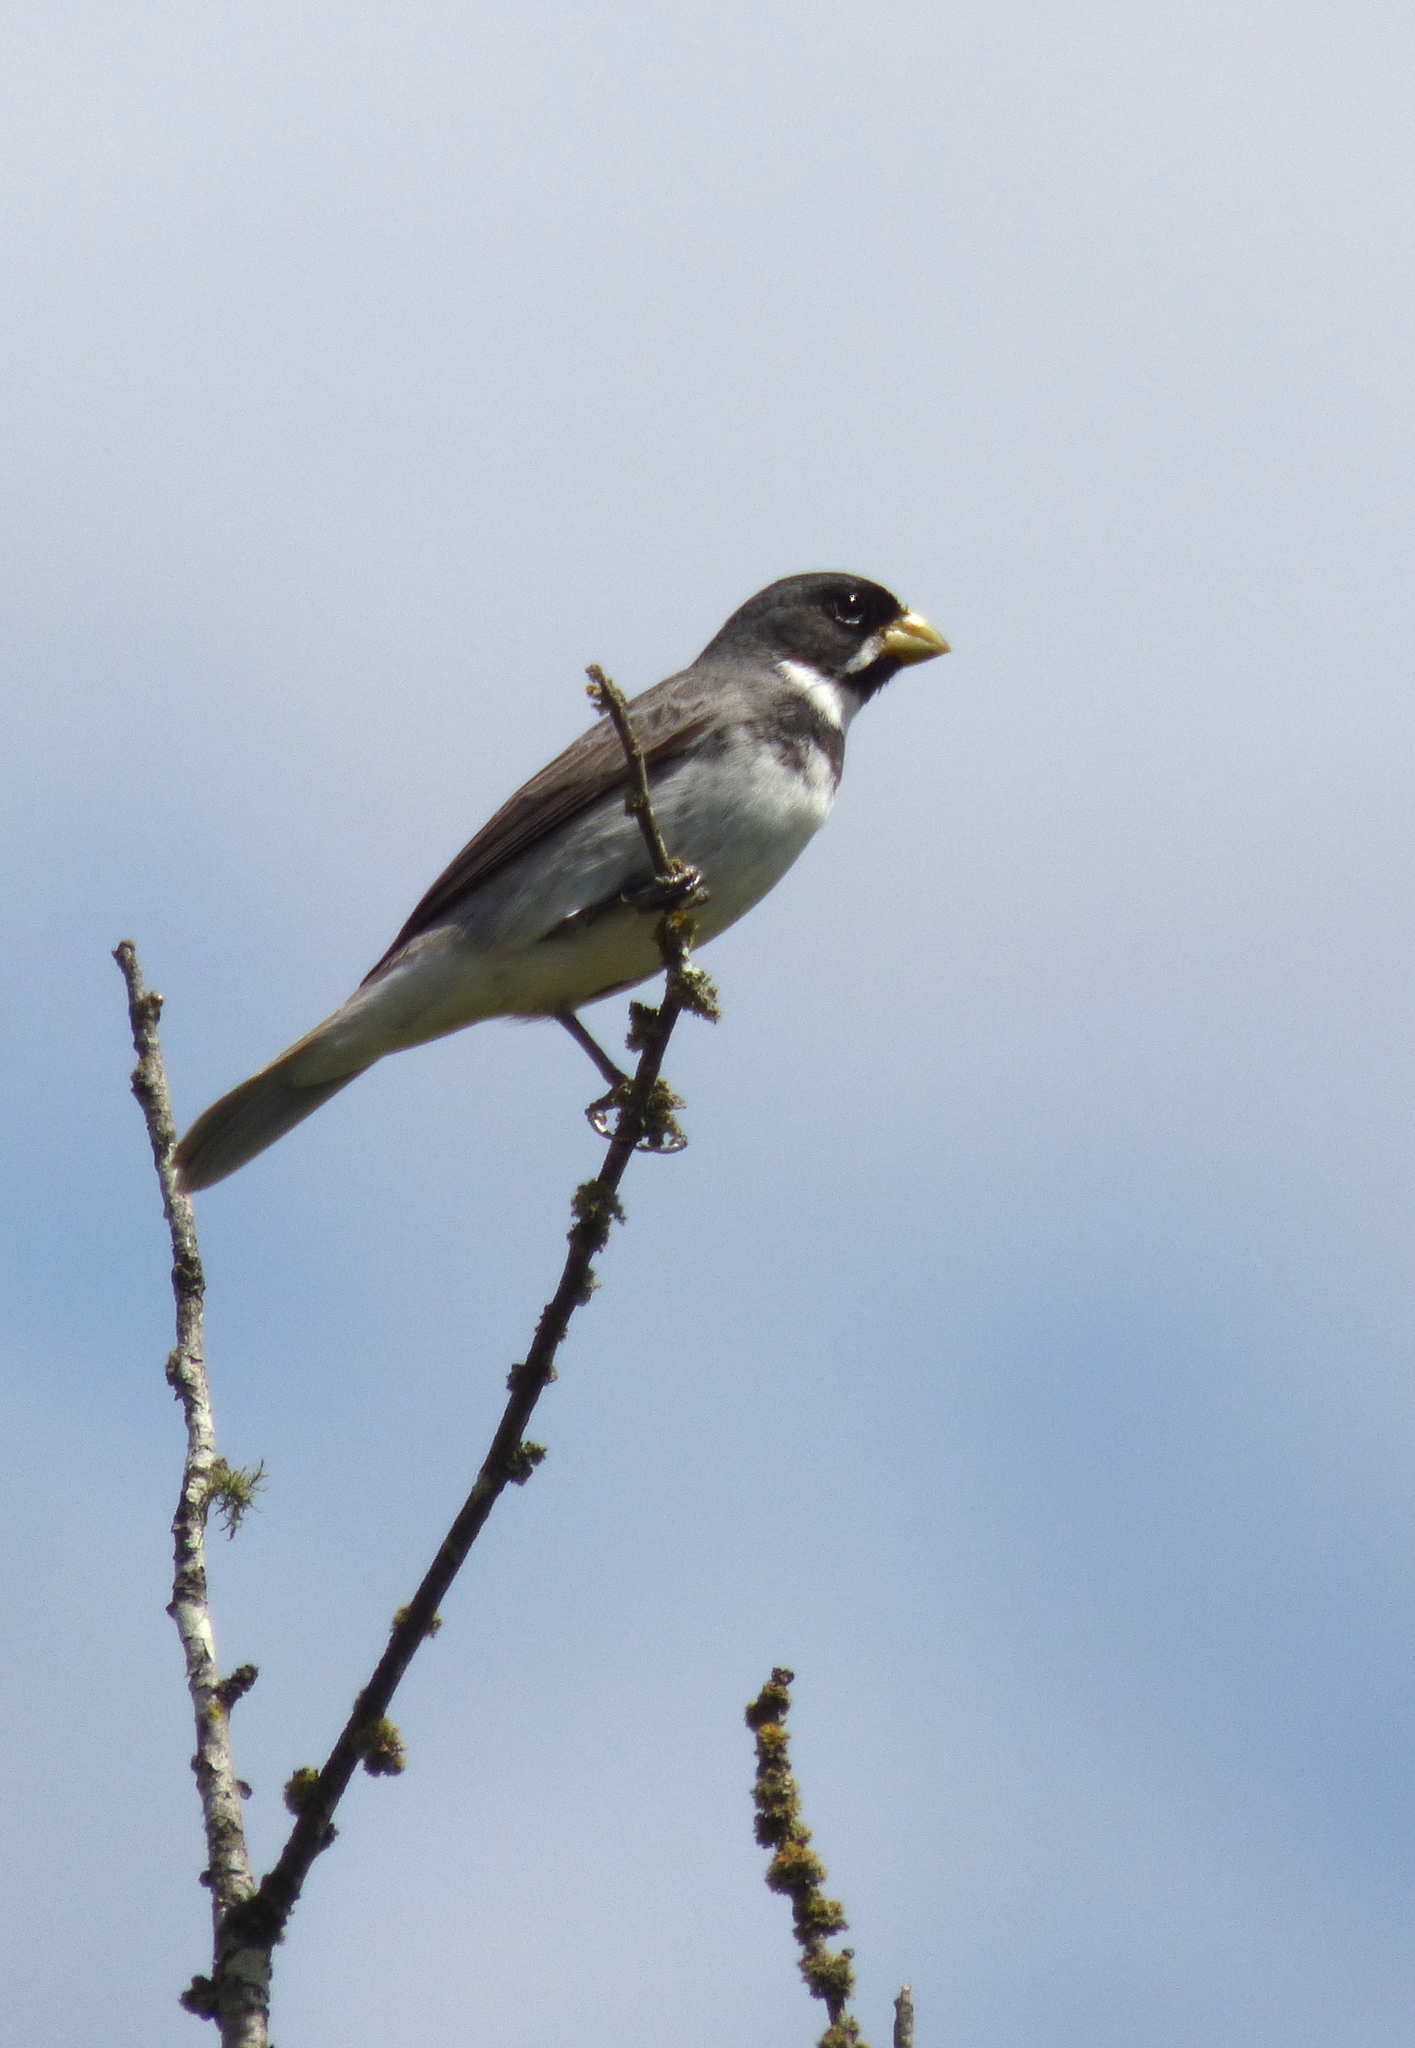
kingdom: Animalia
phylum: Chordata
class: Aves
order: Passeriformes
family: Thraupidae
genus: Sporophila
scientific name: Sporophila caerulescens
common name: Double-collared seedeater
